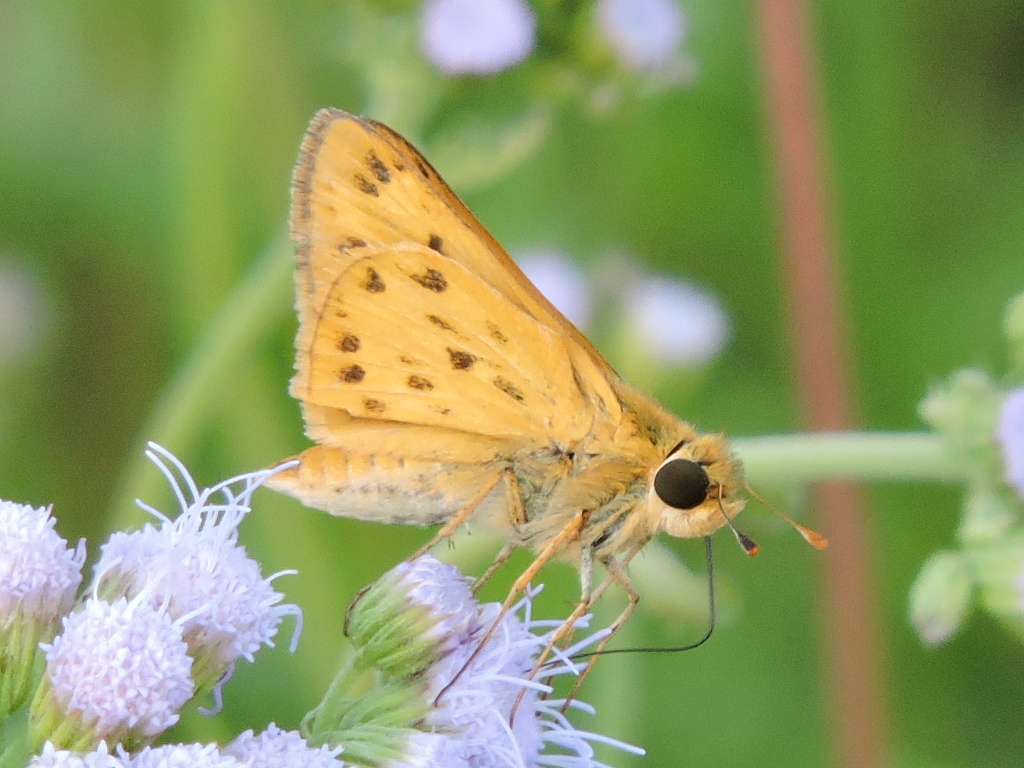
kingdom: Animalia
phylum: Arthropoda
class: Insecta
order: Lepidoptera
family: Hesperiidae
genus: Hylephila
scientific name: Hylephila phyleus
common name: Fiery skipper
